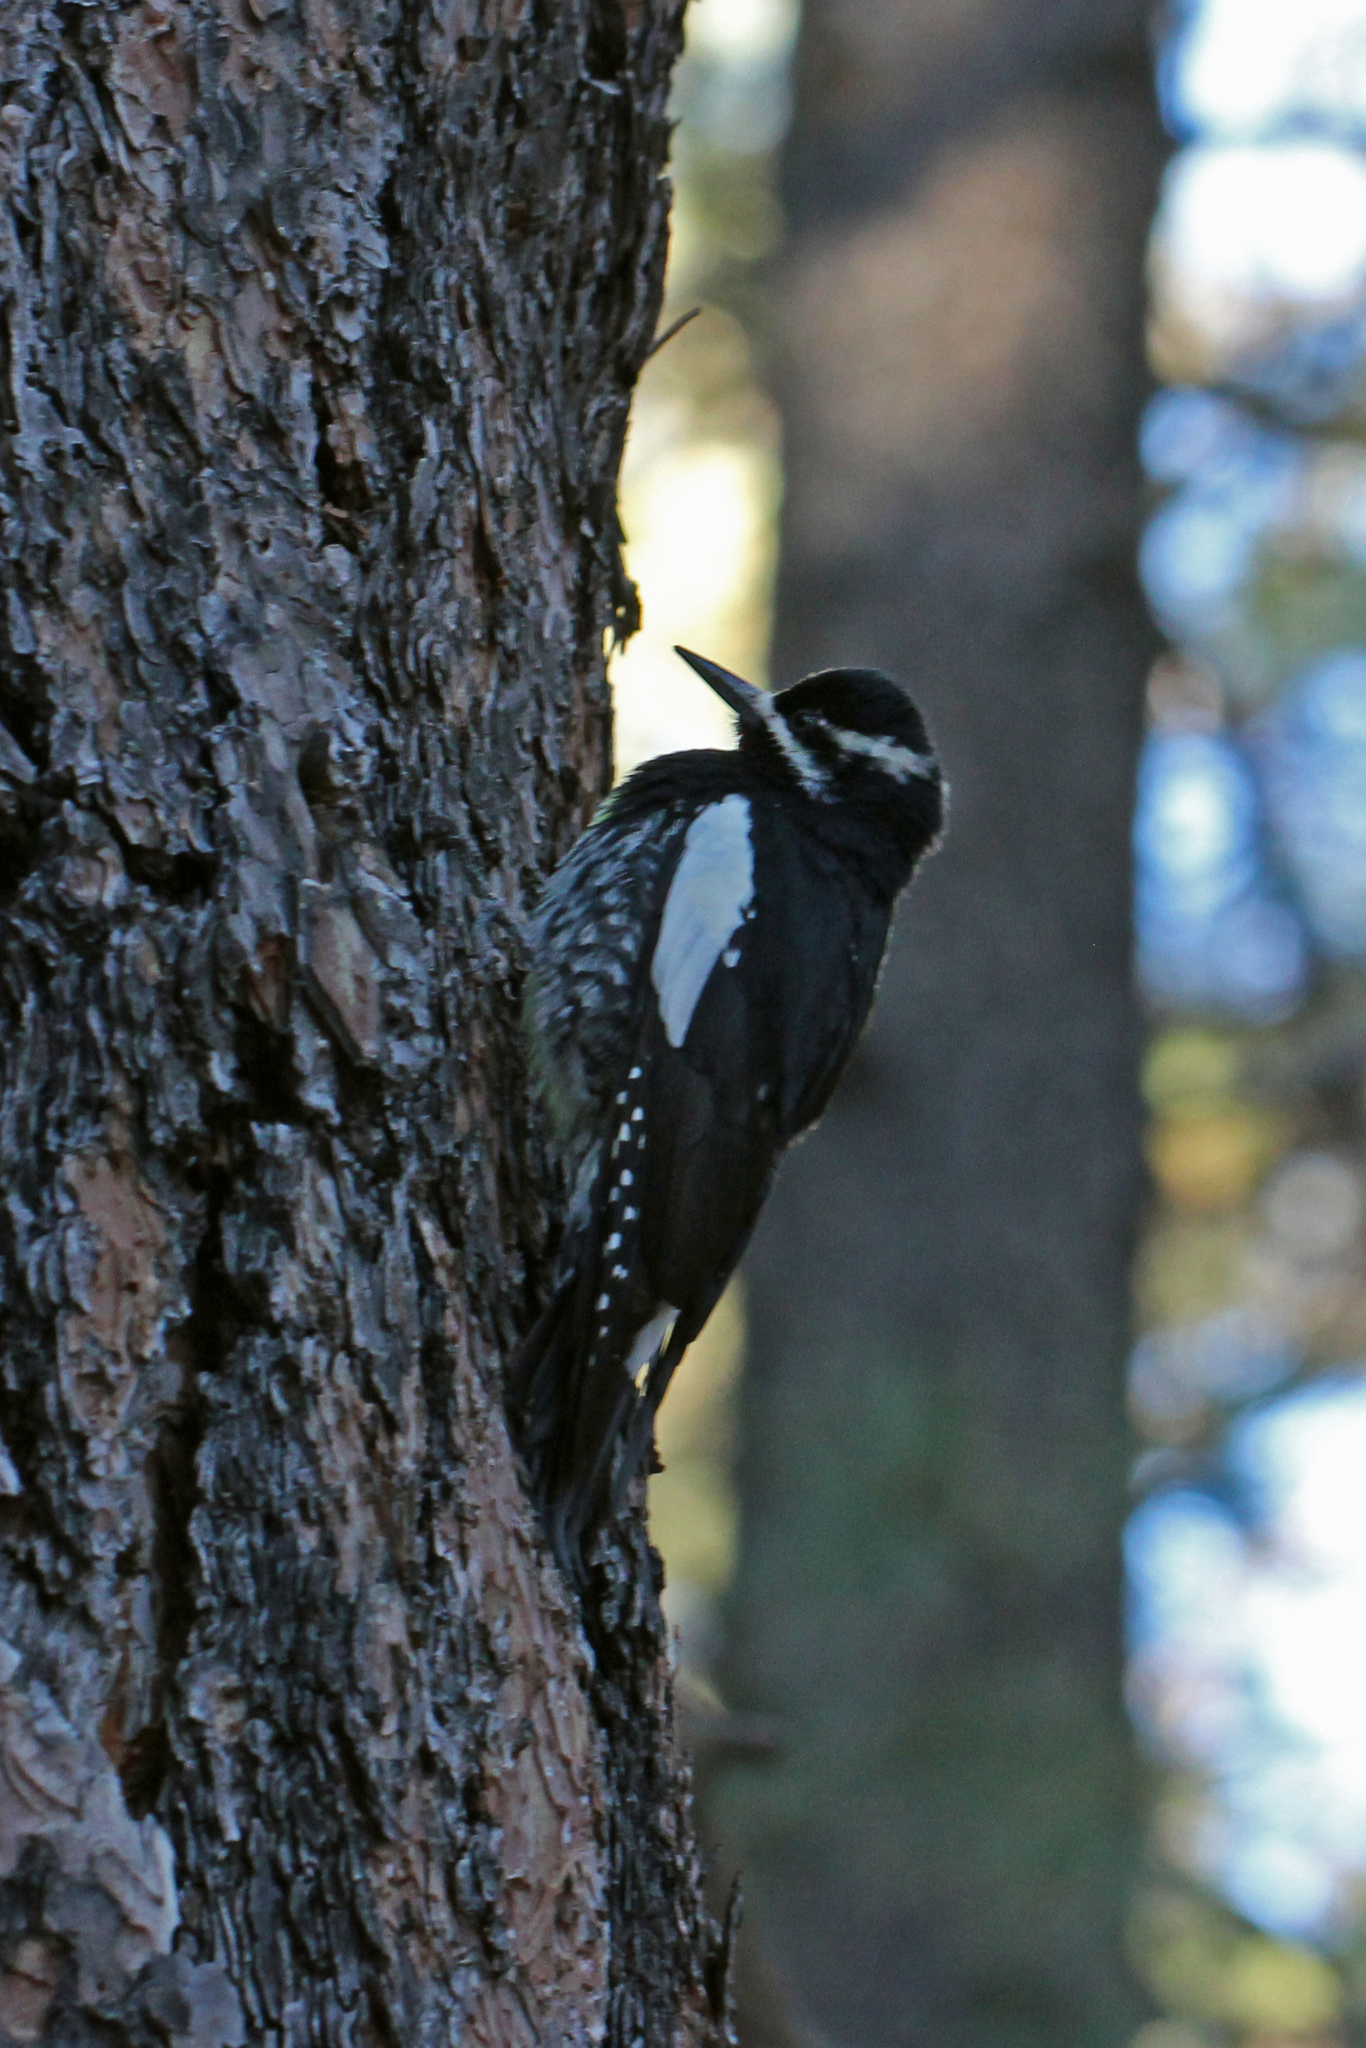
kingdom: Animalia
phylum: Chordata
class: Aves
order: Piciformes
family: Picidae
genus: Sphyrapicus
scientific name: Sphyrapicus thyroideus
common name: Williamson's sapsucker
